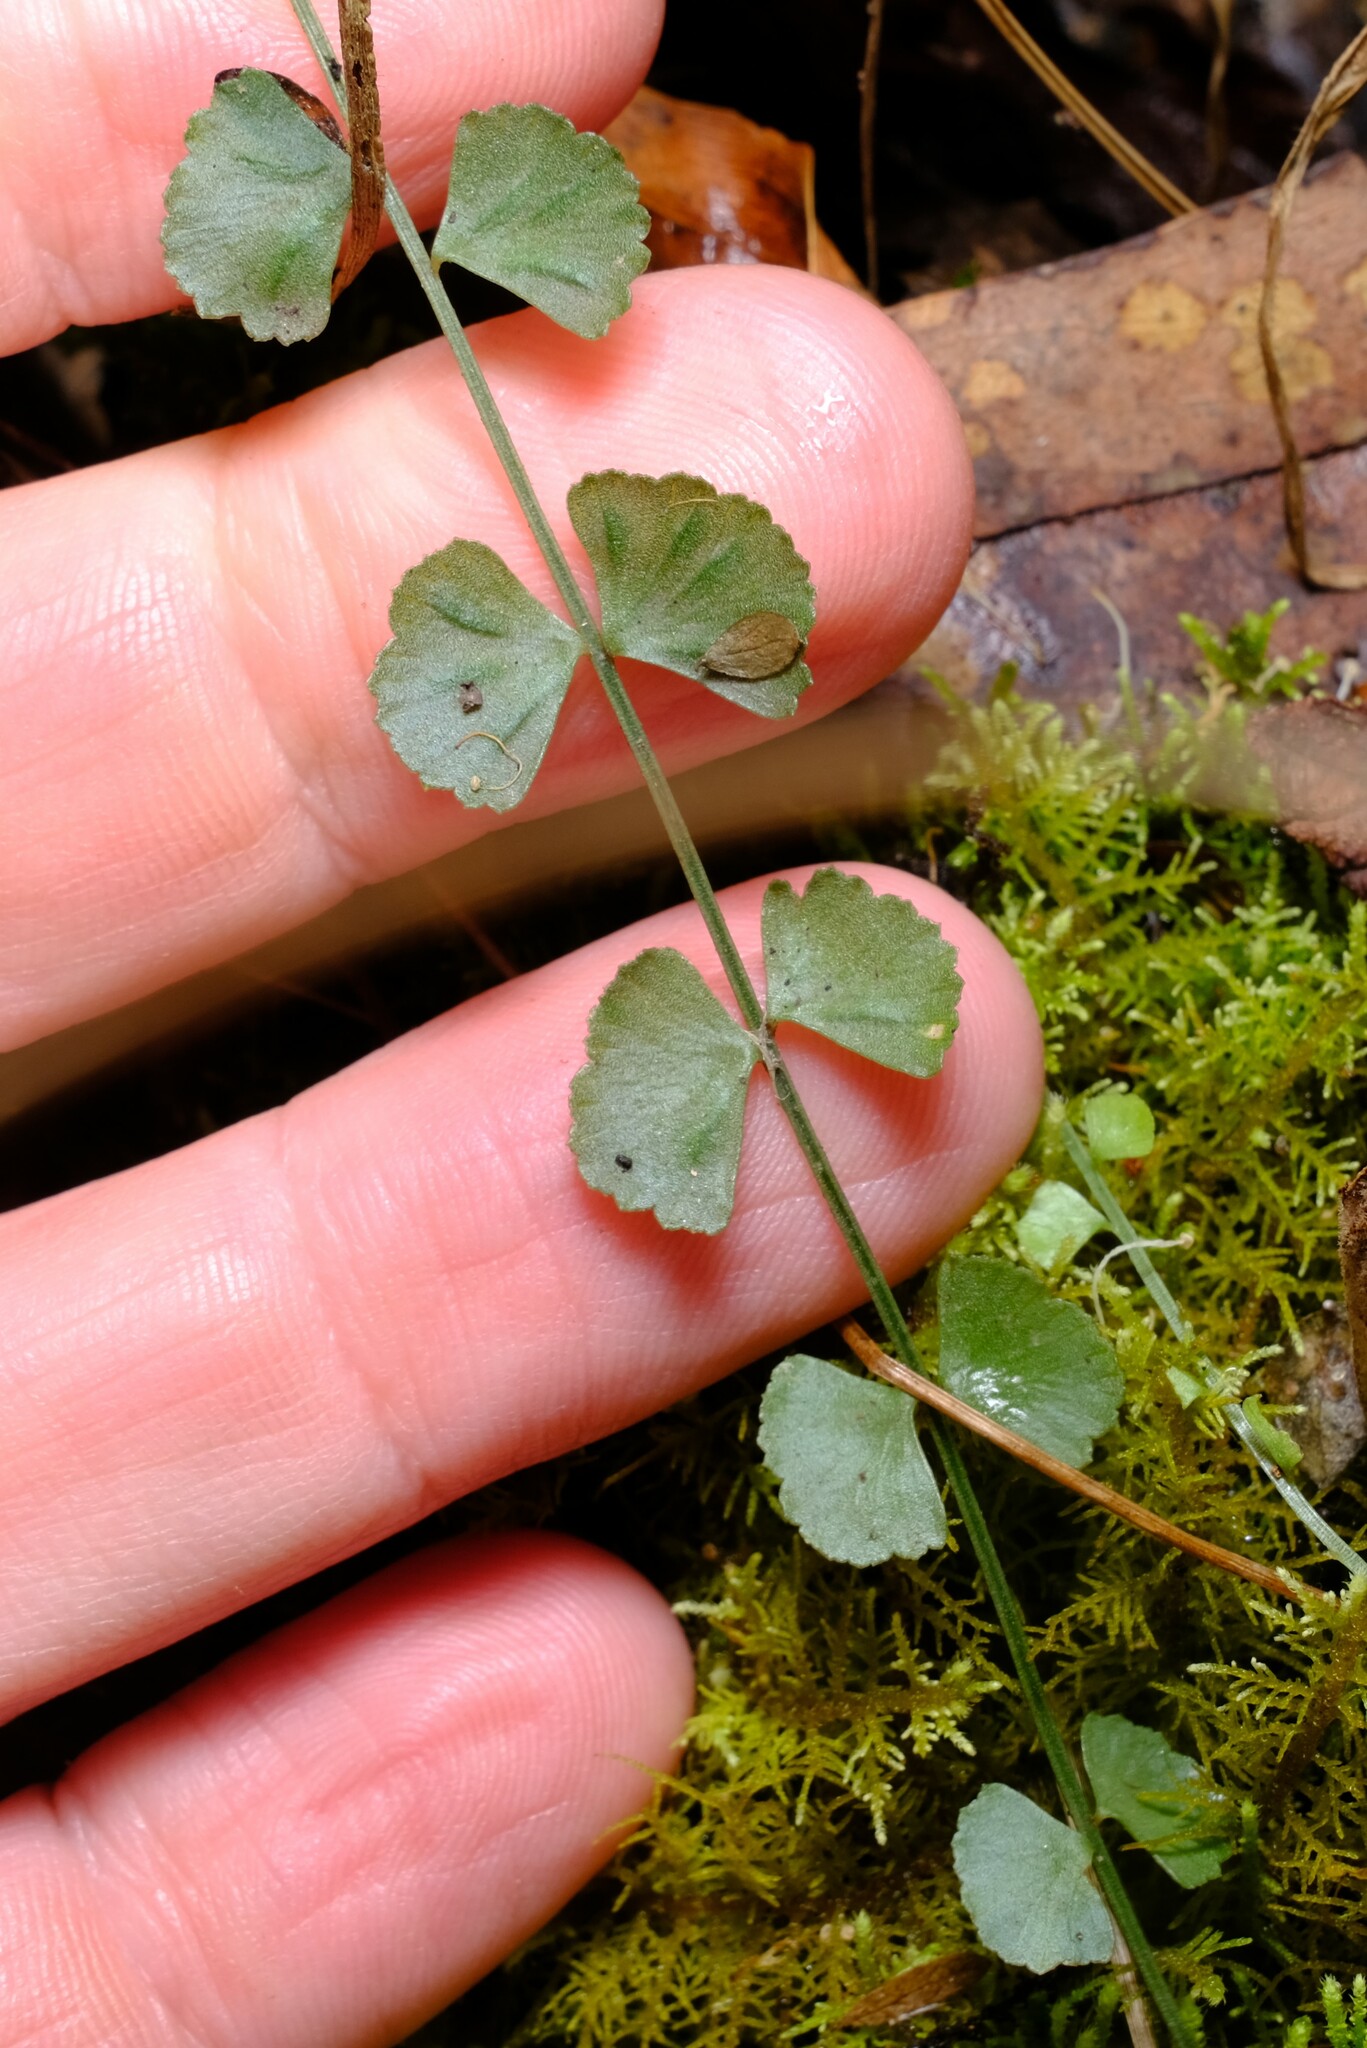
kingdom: Plantae
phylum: Tracheophyta
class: Polypodiopsida
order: Polypodiales
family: Aspleniaceae
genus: Asplenium
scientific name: Asplenium flabellifolium
